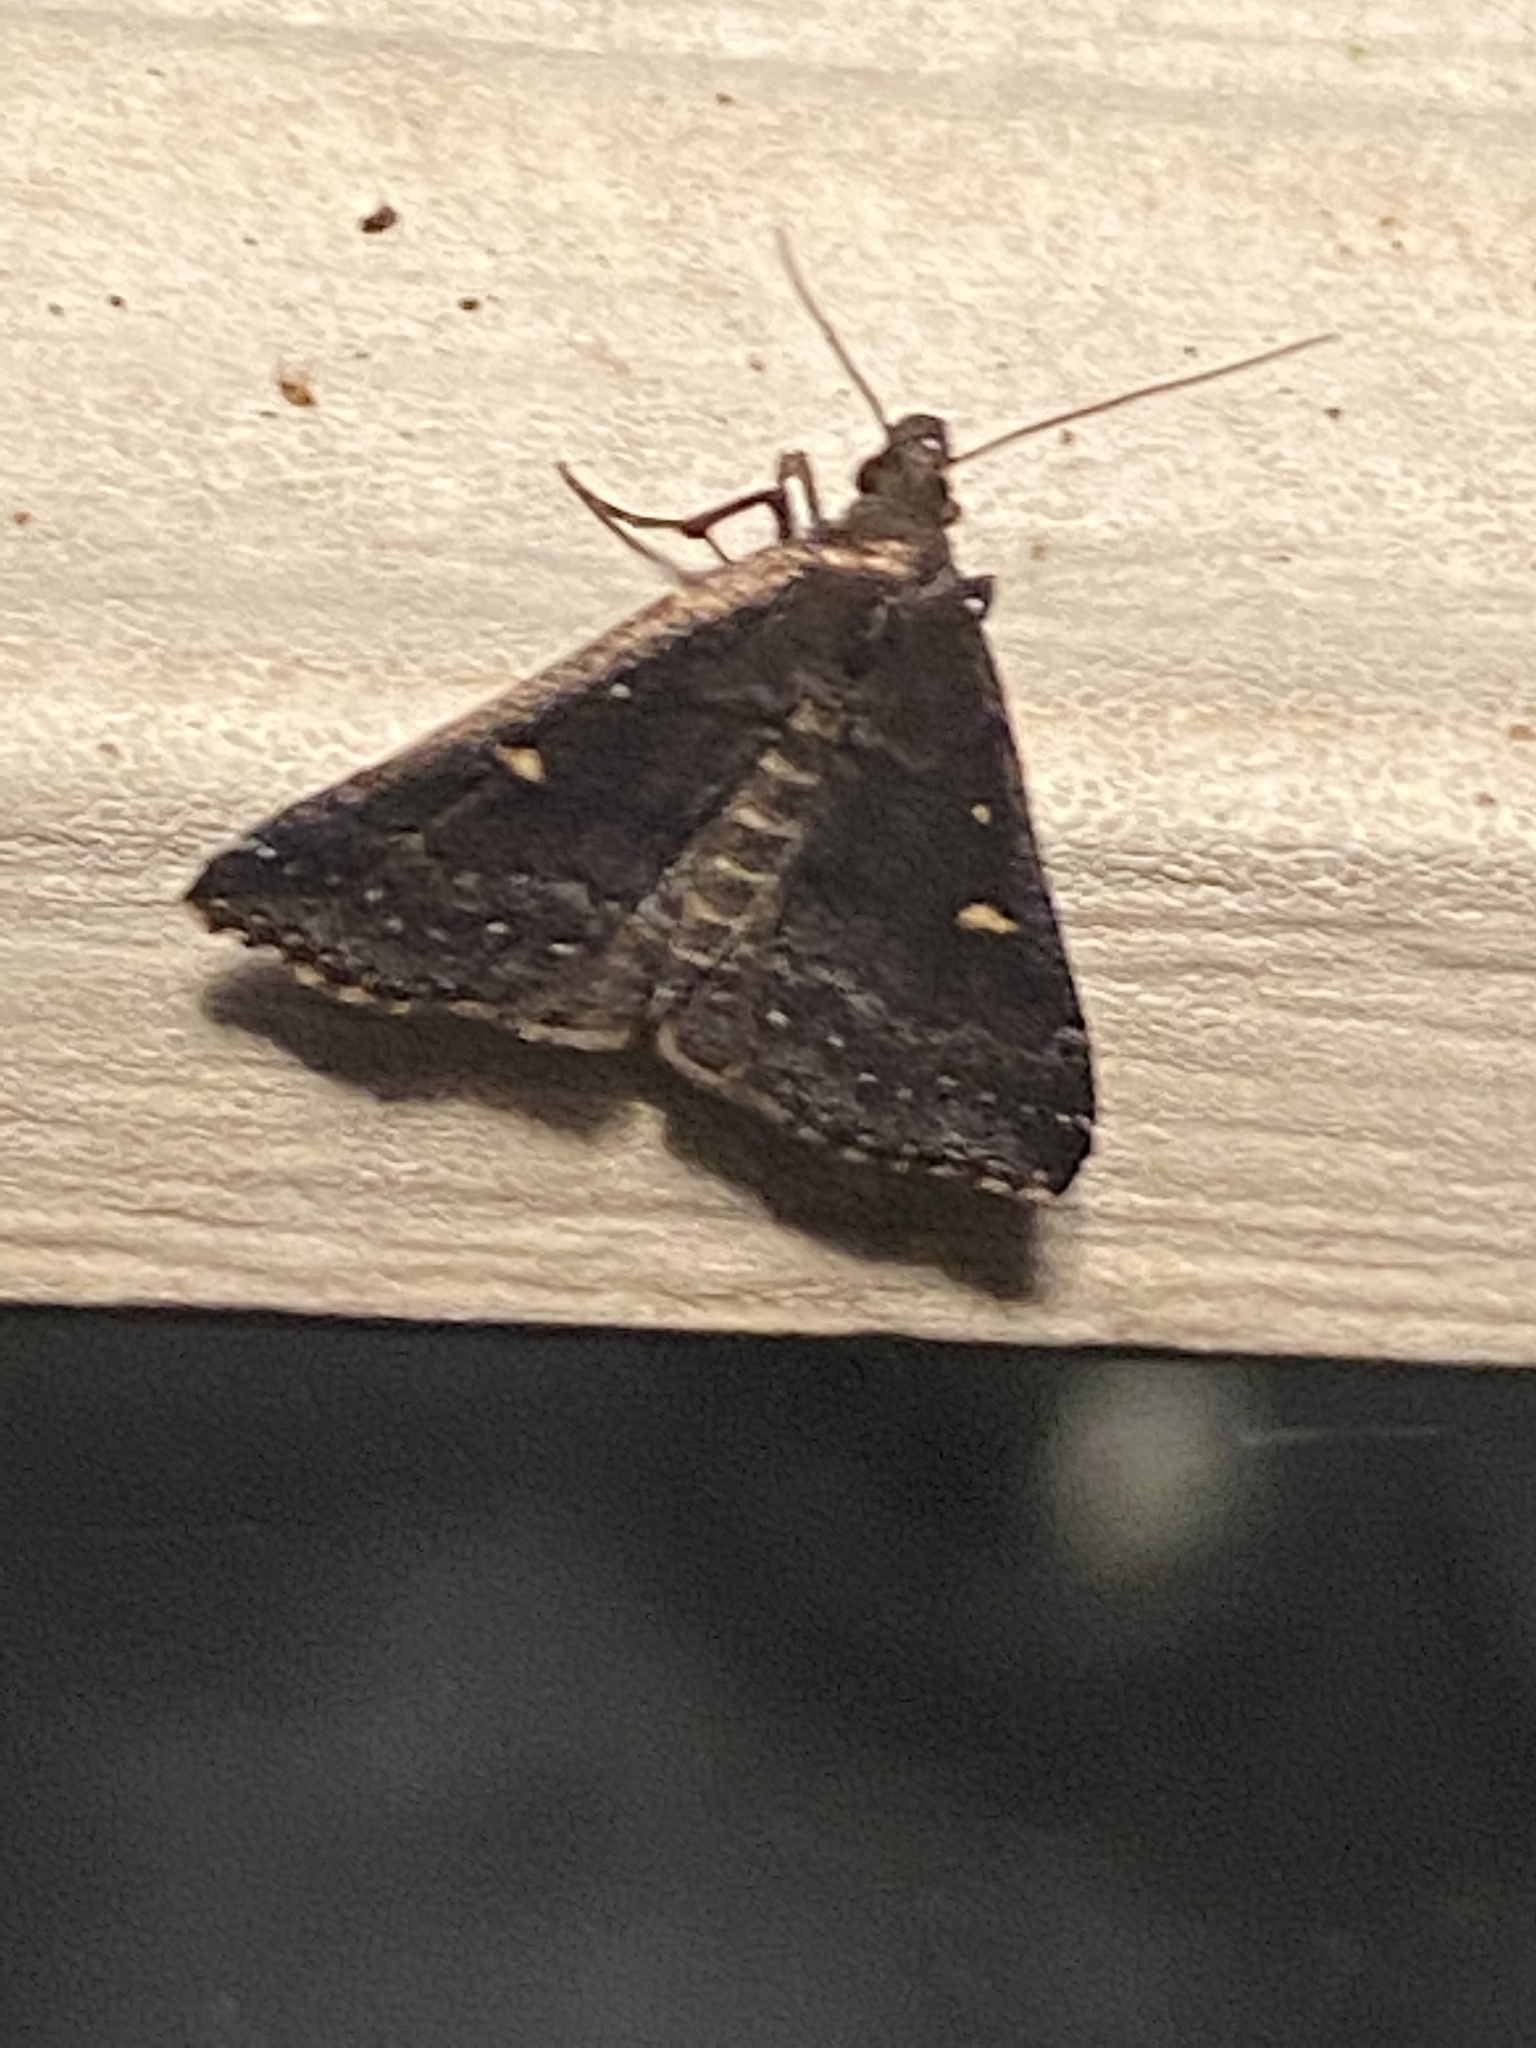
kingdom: Animalia
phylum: Arthropoda
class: Insecta
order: Lepidoptera
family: Erebidae
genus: Tetanolita
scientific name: Tetanolita mynesalis
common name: Smoky tetanolita moth
